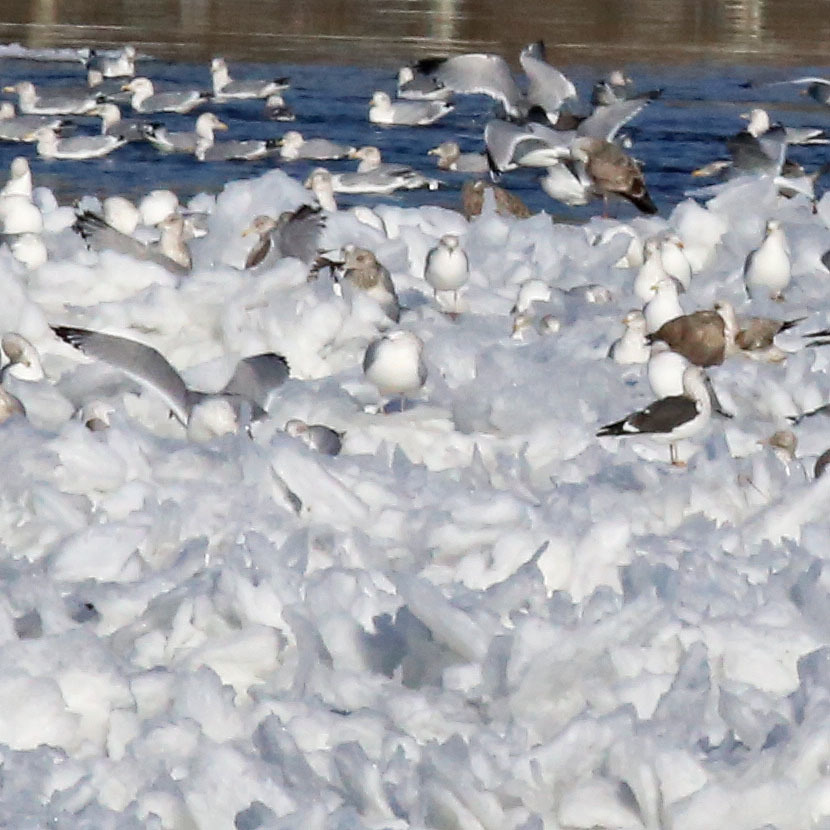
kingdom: Animalia
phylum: Chordata
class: Aves
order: Charadriiformes
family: Laridae
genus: Larus
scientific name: Larus fuscus
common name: Lesser black-backed gull
